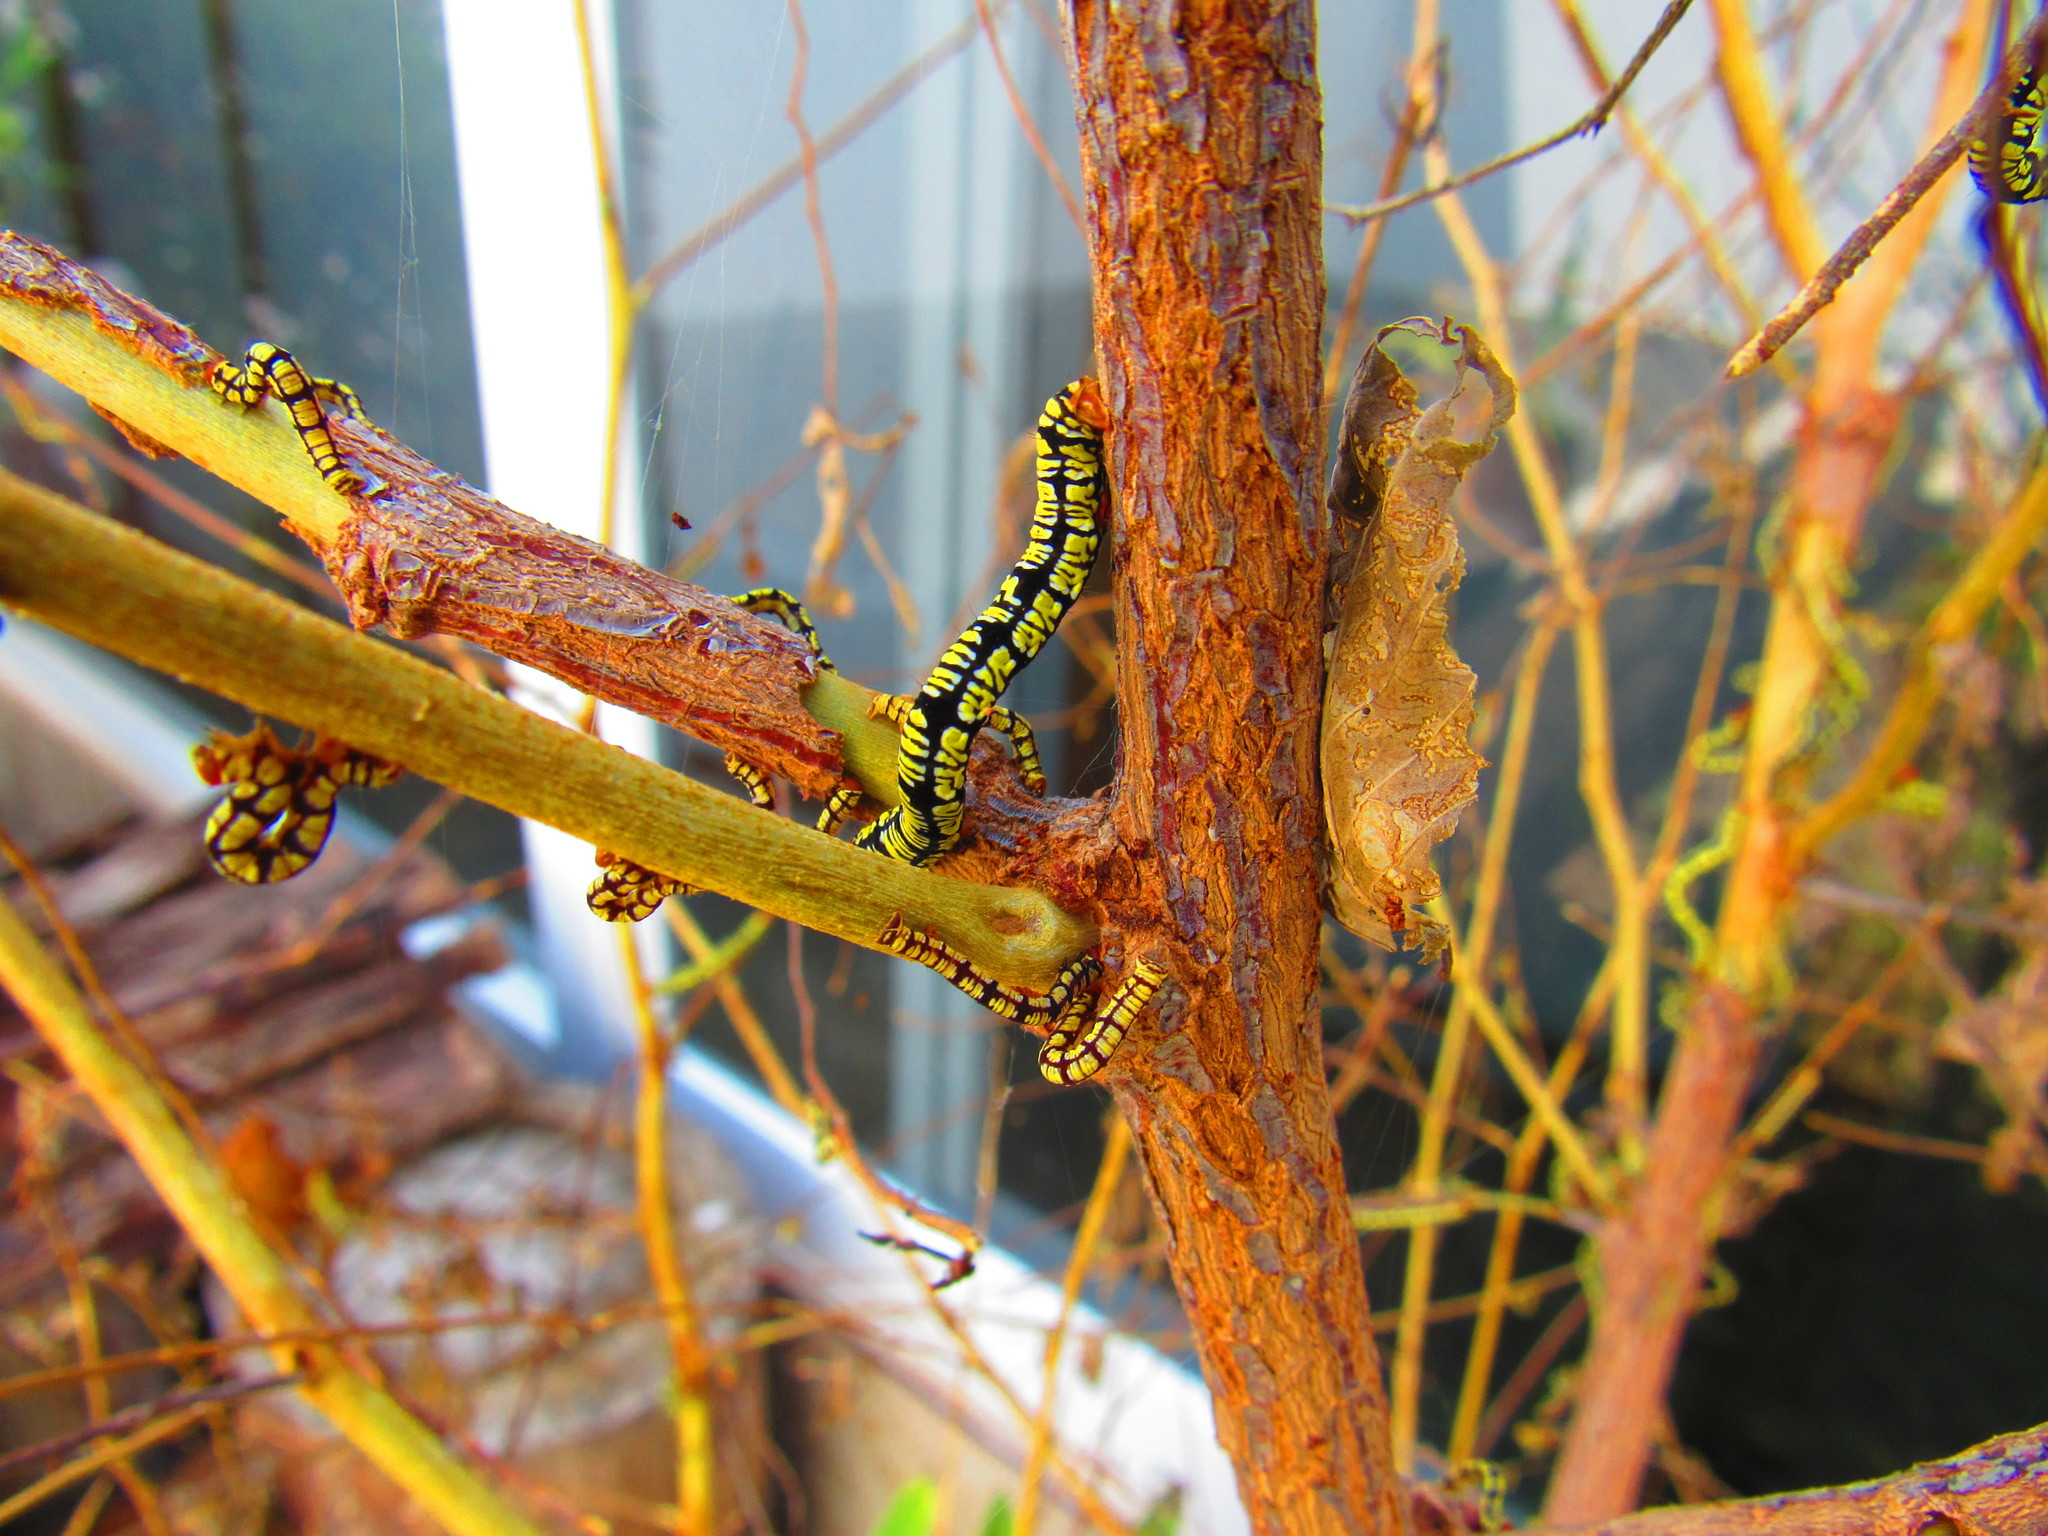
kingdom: Animalia
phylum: Arthropoda
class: Insecta
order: Lepidoptera
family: Geometridae
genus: Melanchroia
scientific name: Melanchroia chephise
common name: White-tipped black
